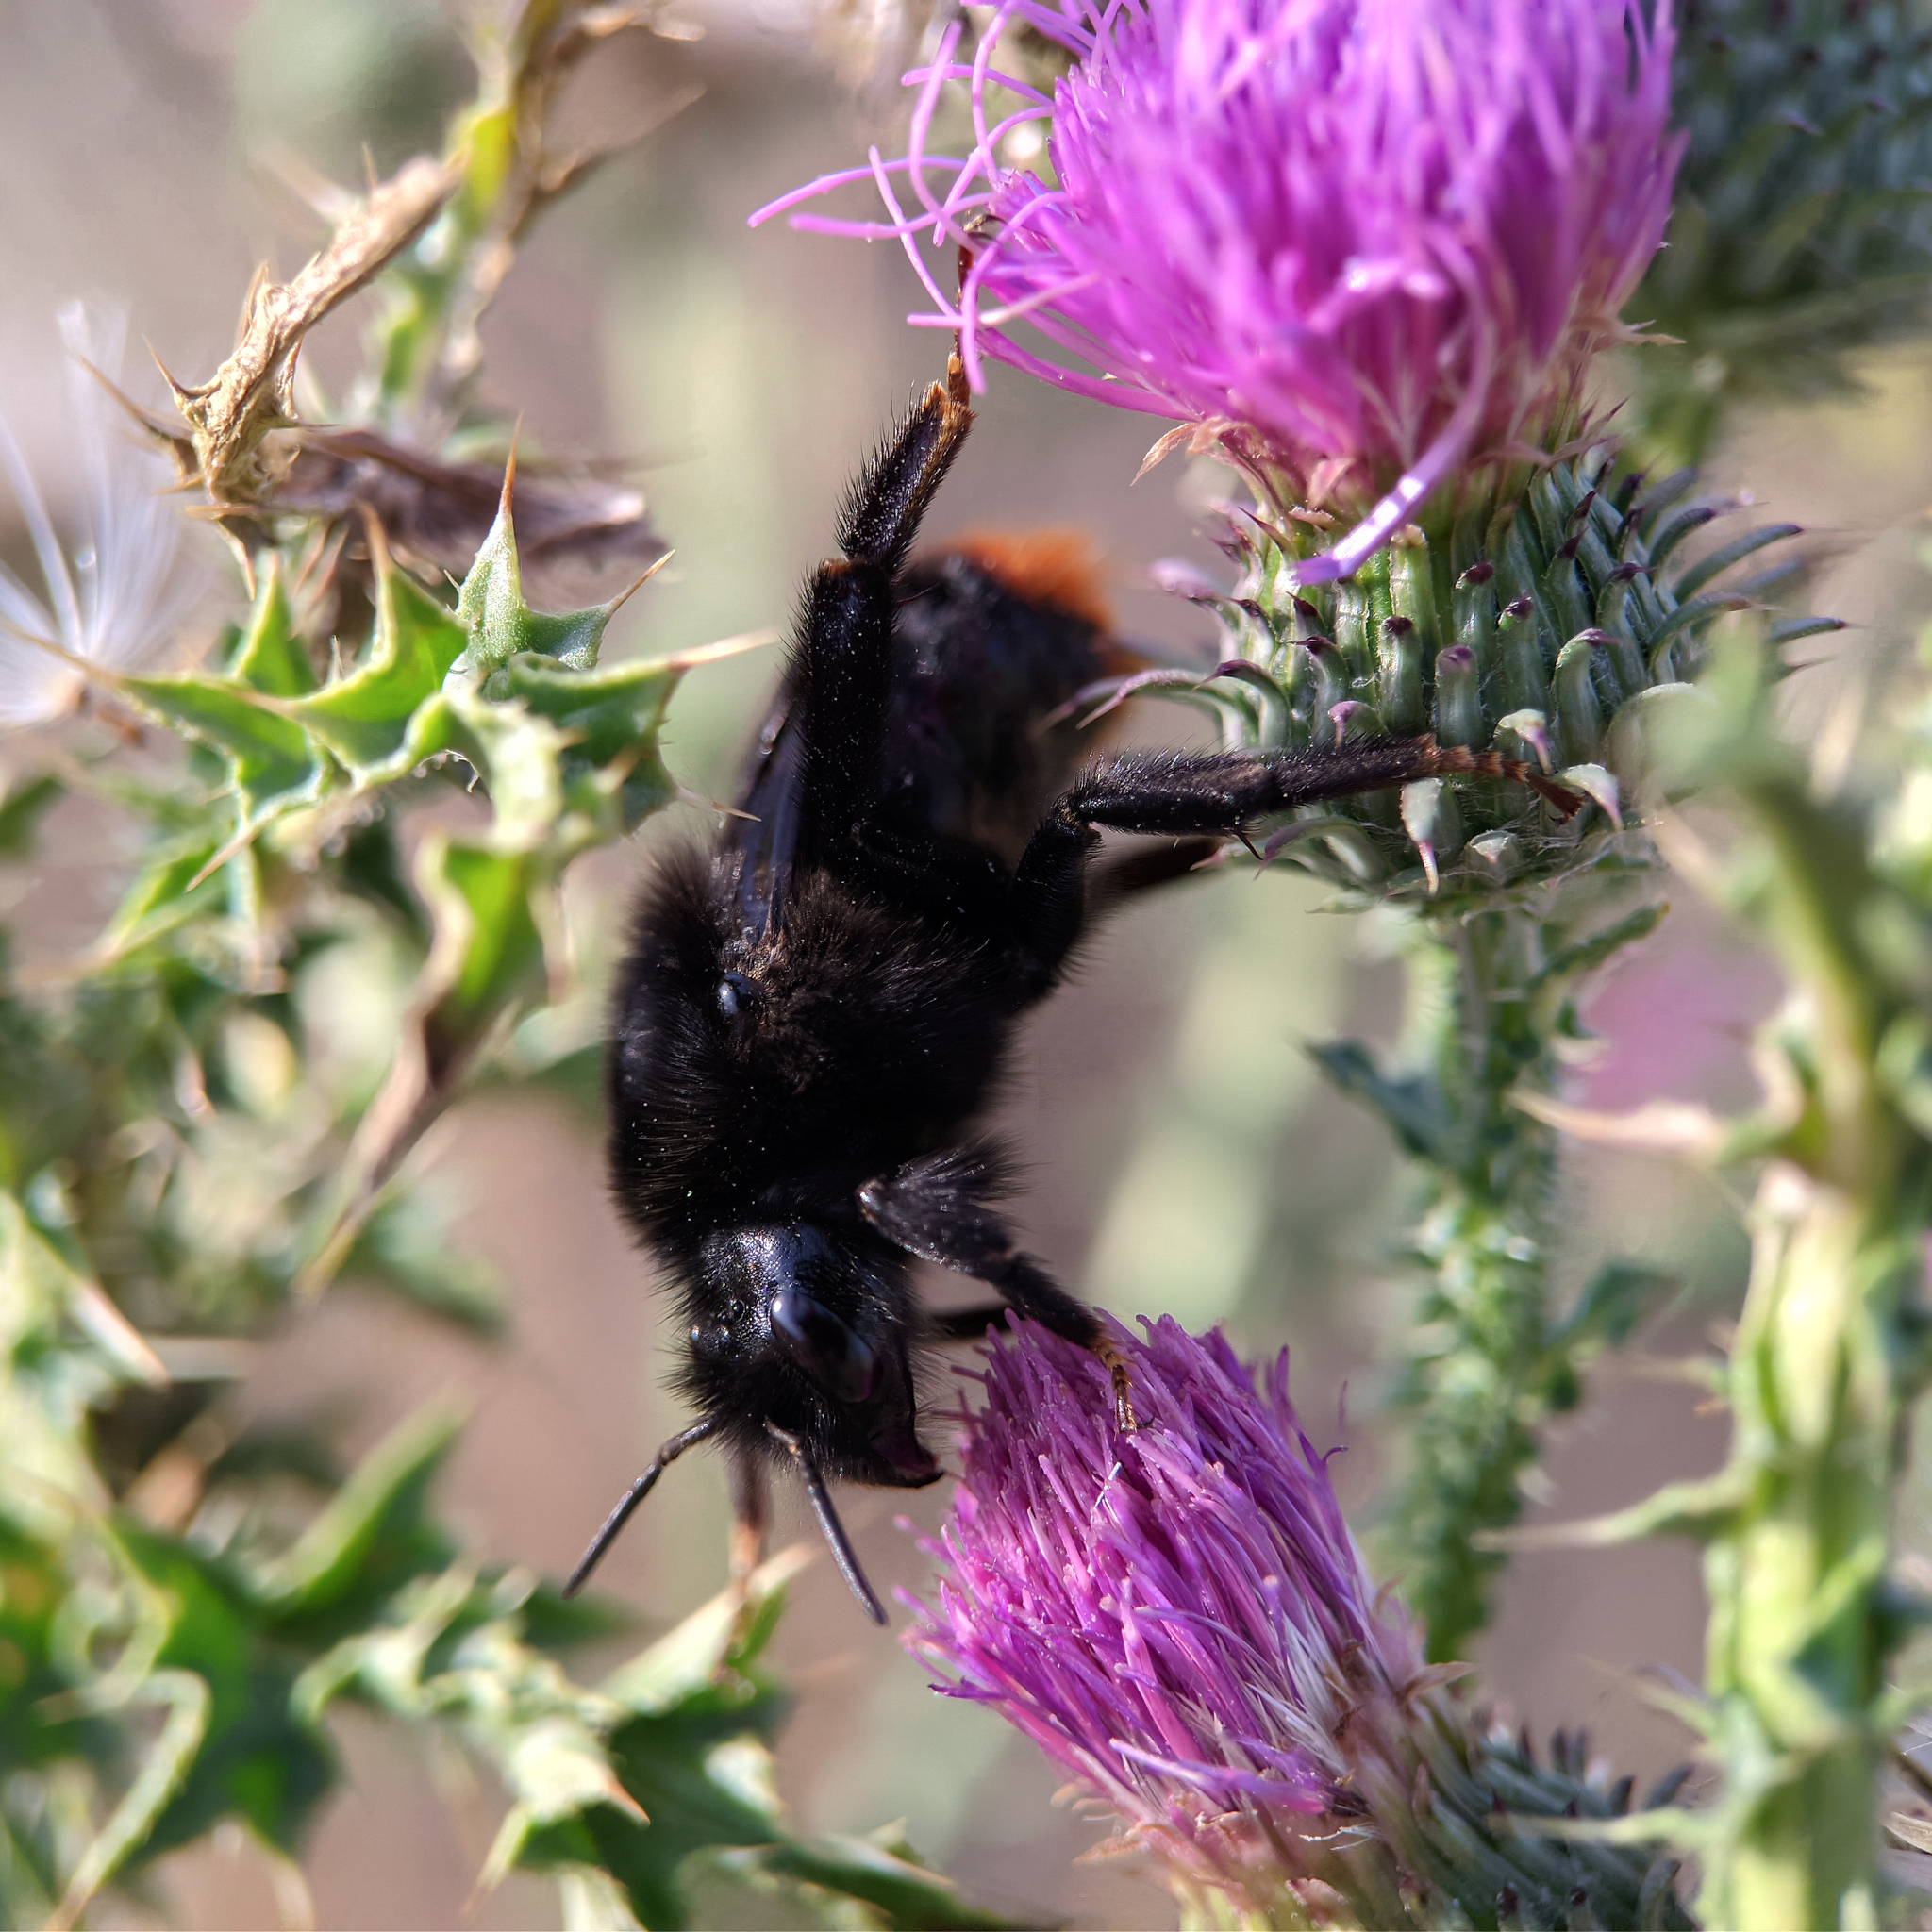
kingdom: Animalia
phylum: Arthropoda
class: Insecta
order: Hymenoptera
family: Apidae
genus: Bombus
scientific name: Bombus rupestris
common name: Hill cuckoo-bee
